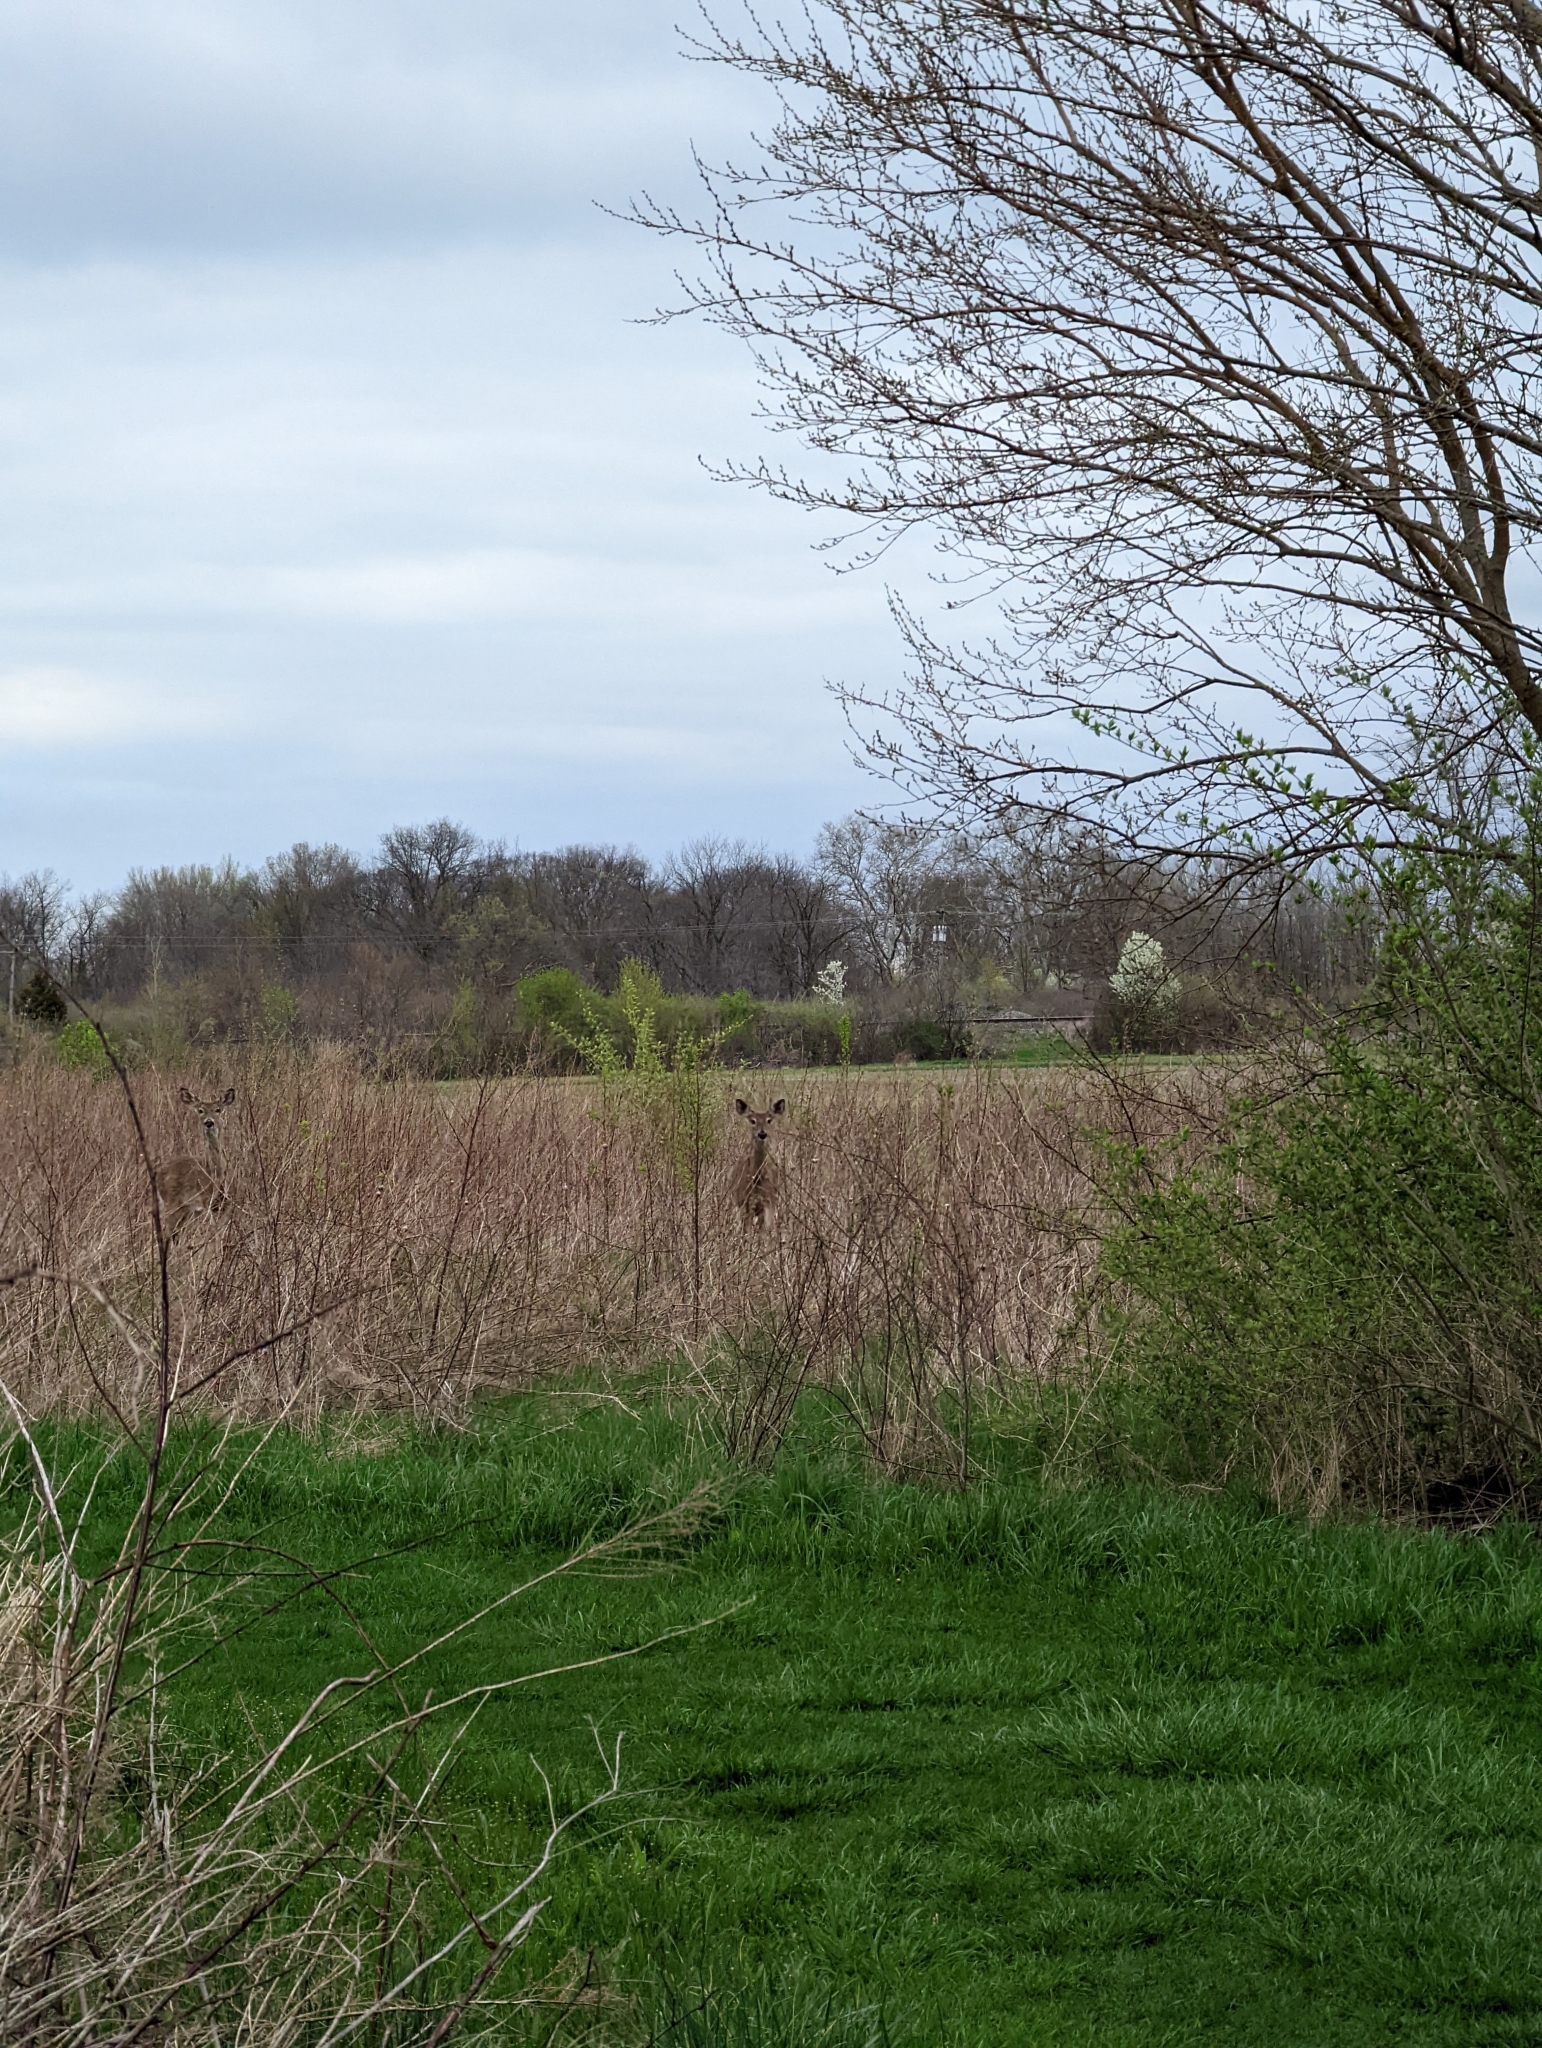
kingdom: Animalia
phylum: Chordata
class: Mammalia
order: Artiodactyla
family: Cervidae
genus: Odocoileus
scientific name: Odocoileus virginianus
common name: White-tailed deer
